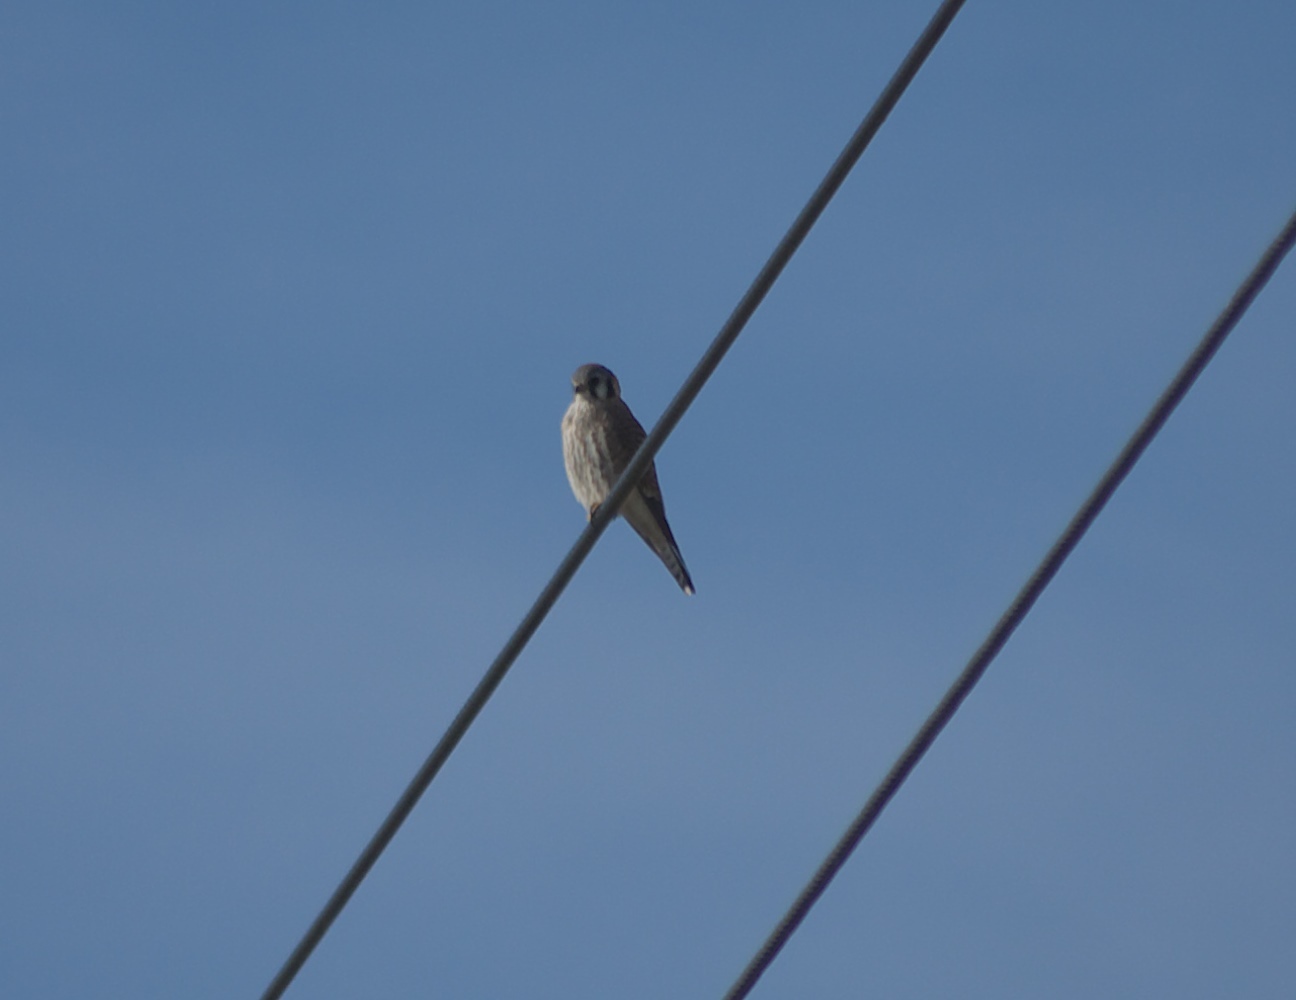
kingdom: Animalia
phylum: Chordata
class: Aves
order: Falconiformes
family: Falconidae
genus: Falco
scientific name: Falco sparverius
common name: American kestrel
